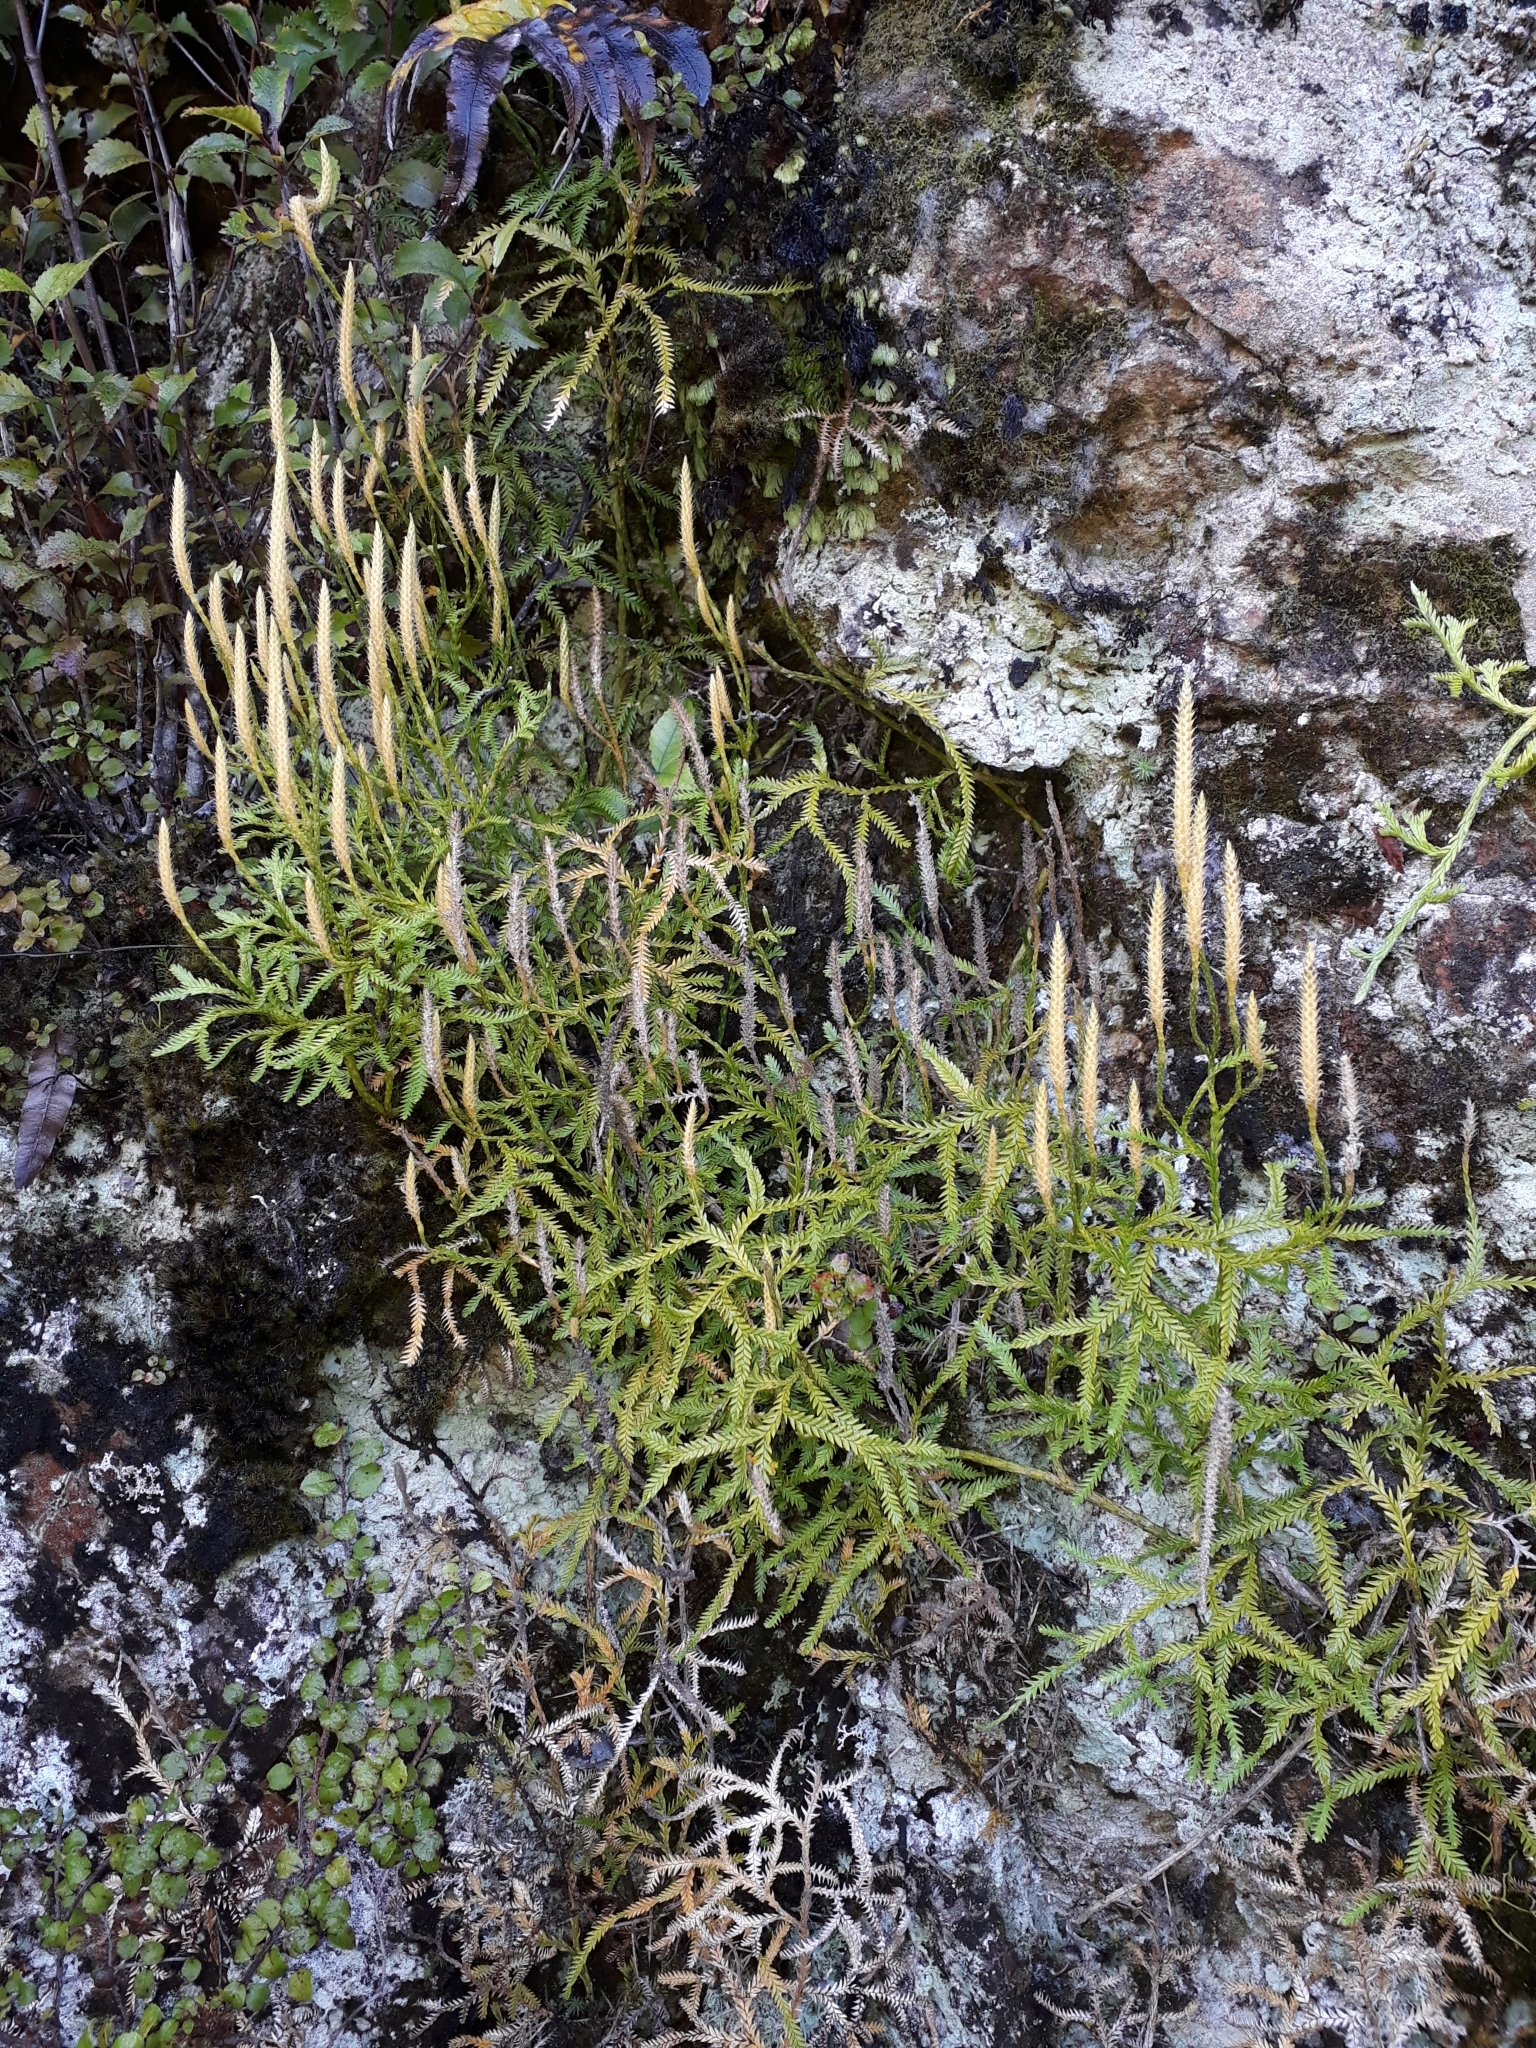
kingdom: Plantae
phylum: Tracheophyta
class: Lycopodiopsida
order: Lycopodiales
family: Lycopodiaceae
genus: Diphasium
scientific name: Diphasium scariosum
